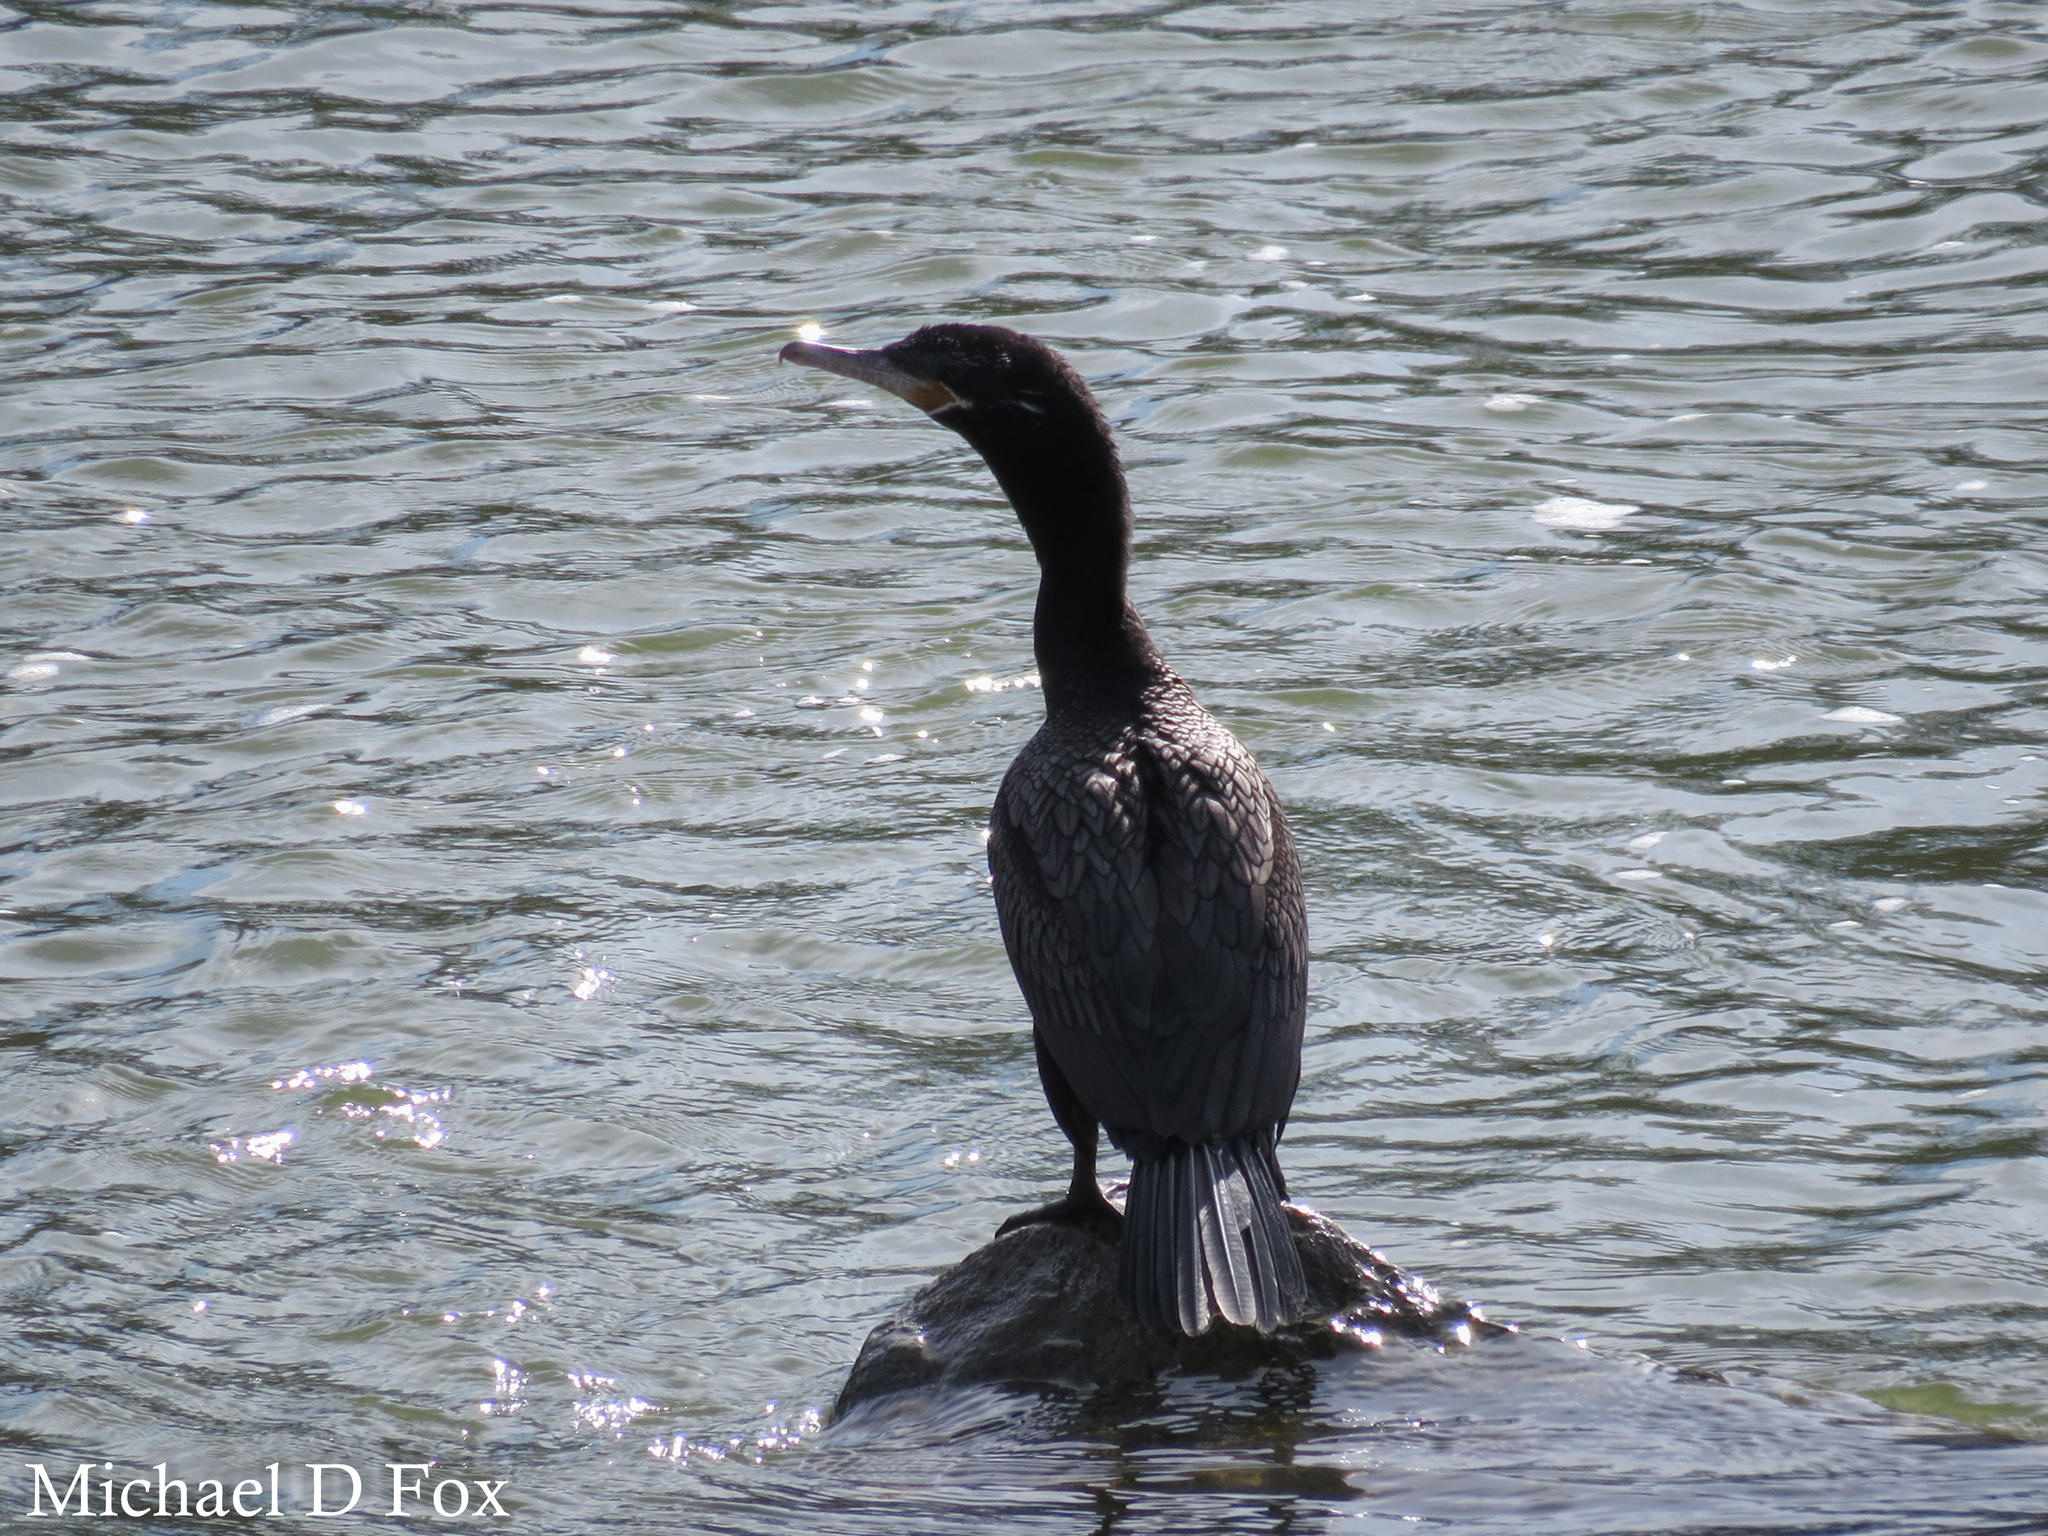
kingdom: Animalia
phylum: Chordata
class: Aves
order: Suliformes
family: Phalacrocoracidae
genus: Phalacrocorax
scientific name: Phalacrocorax brasilianus
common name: Neotropic cormorant
